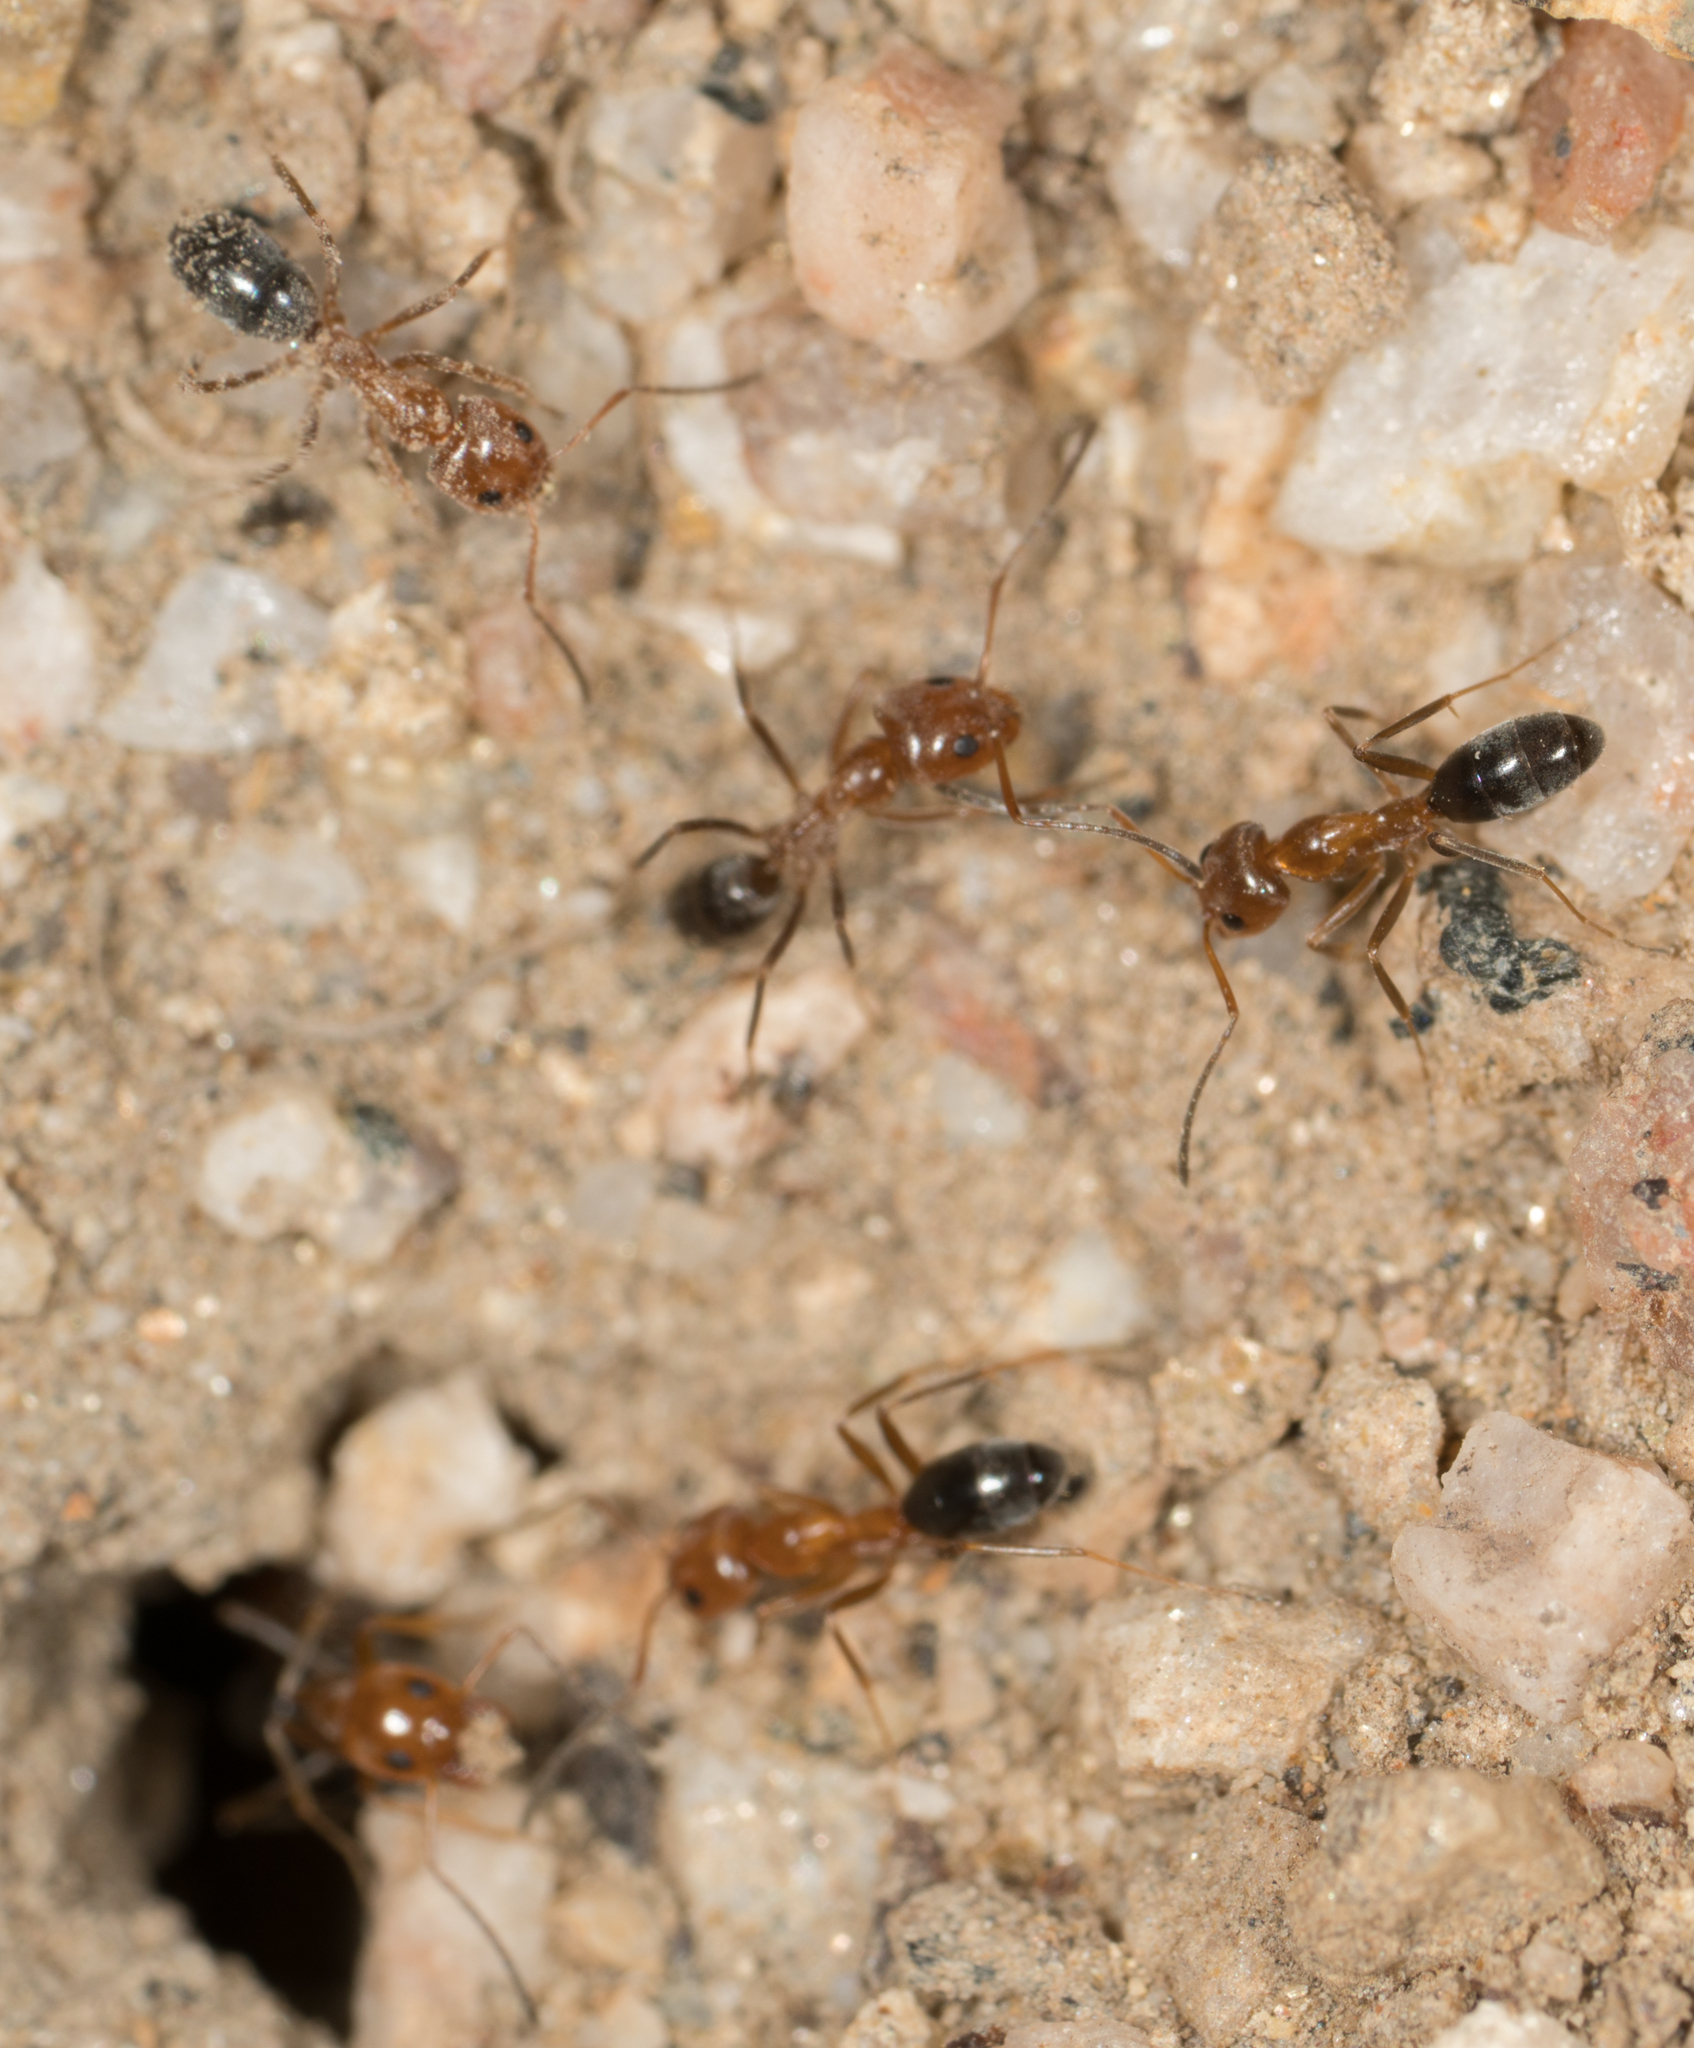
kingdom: Animalia
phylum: Arthropoda
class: Insecta
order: Hymenoptera
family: Formicidae
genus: Dorymyrmex
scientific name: Dorymyrmex bicolor
